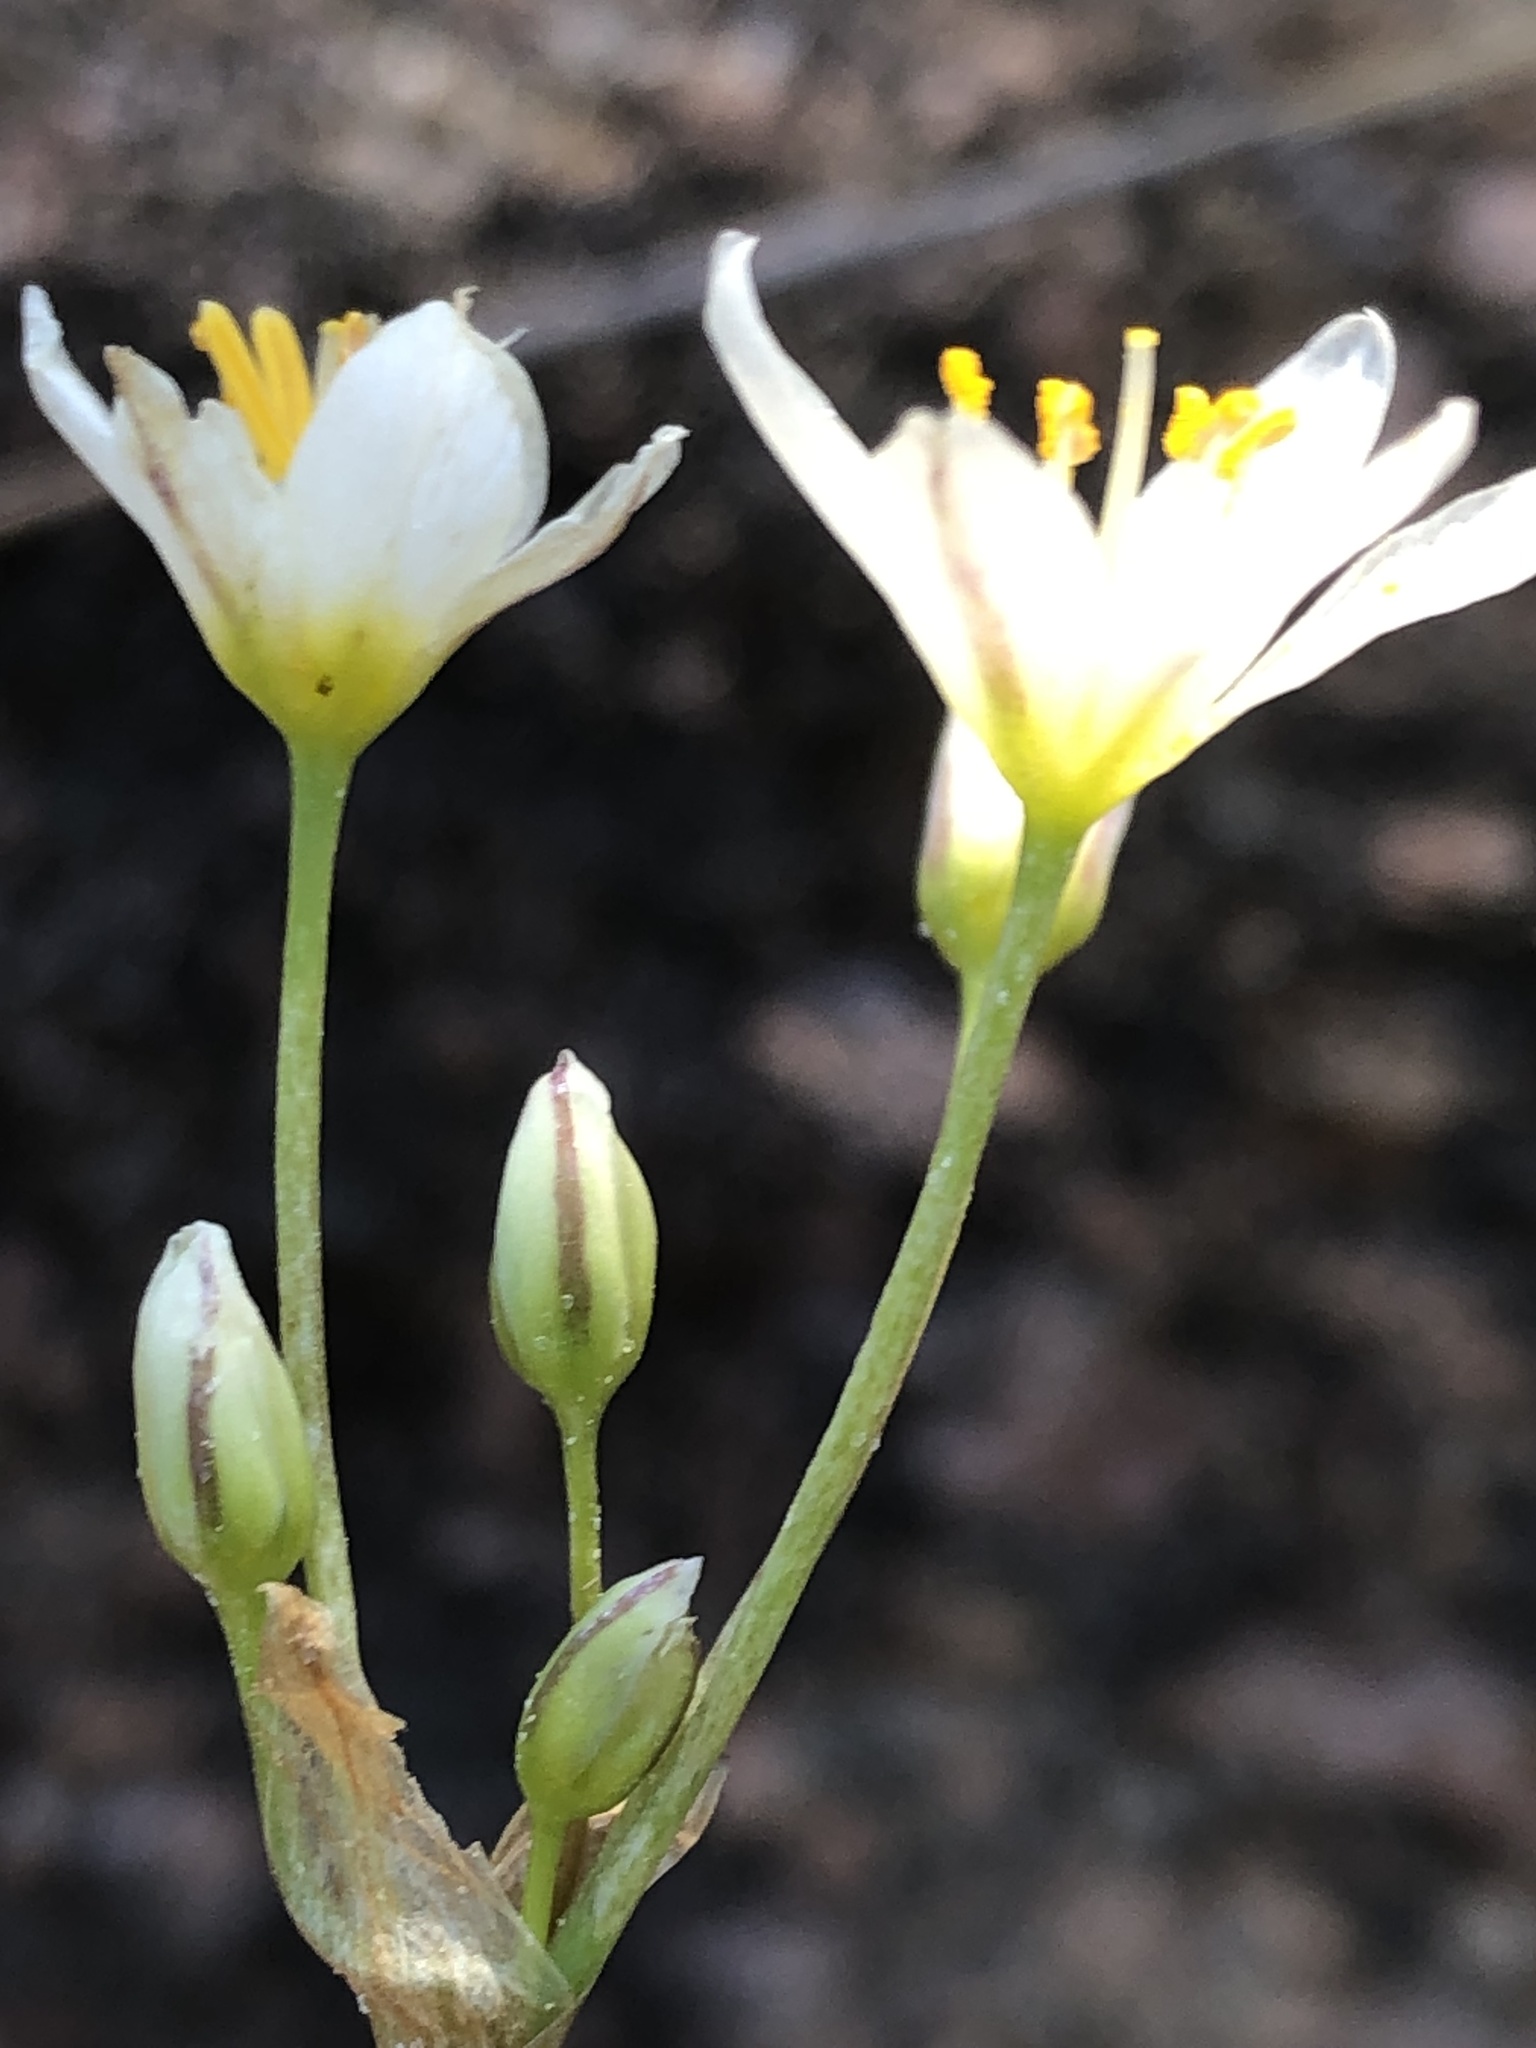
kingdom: Plantae
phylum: Tracheophyta
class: Liliopsida
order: Asparagales
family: Amaryllidaceae
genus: Nothoscordum
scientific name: Nothoscordum bivalve
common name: Crow-poison
